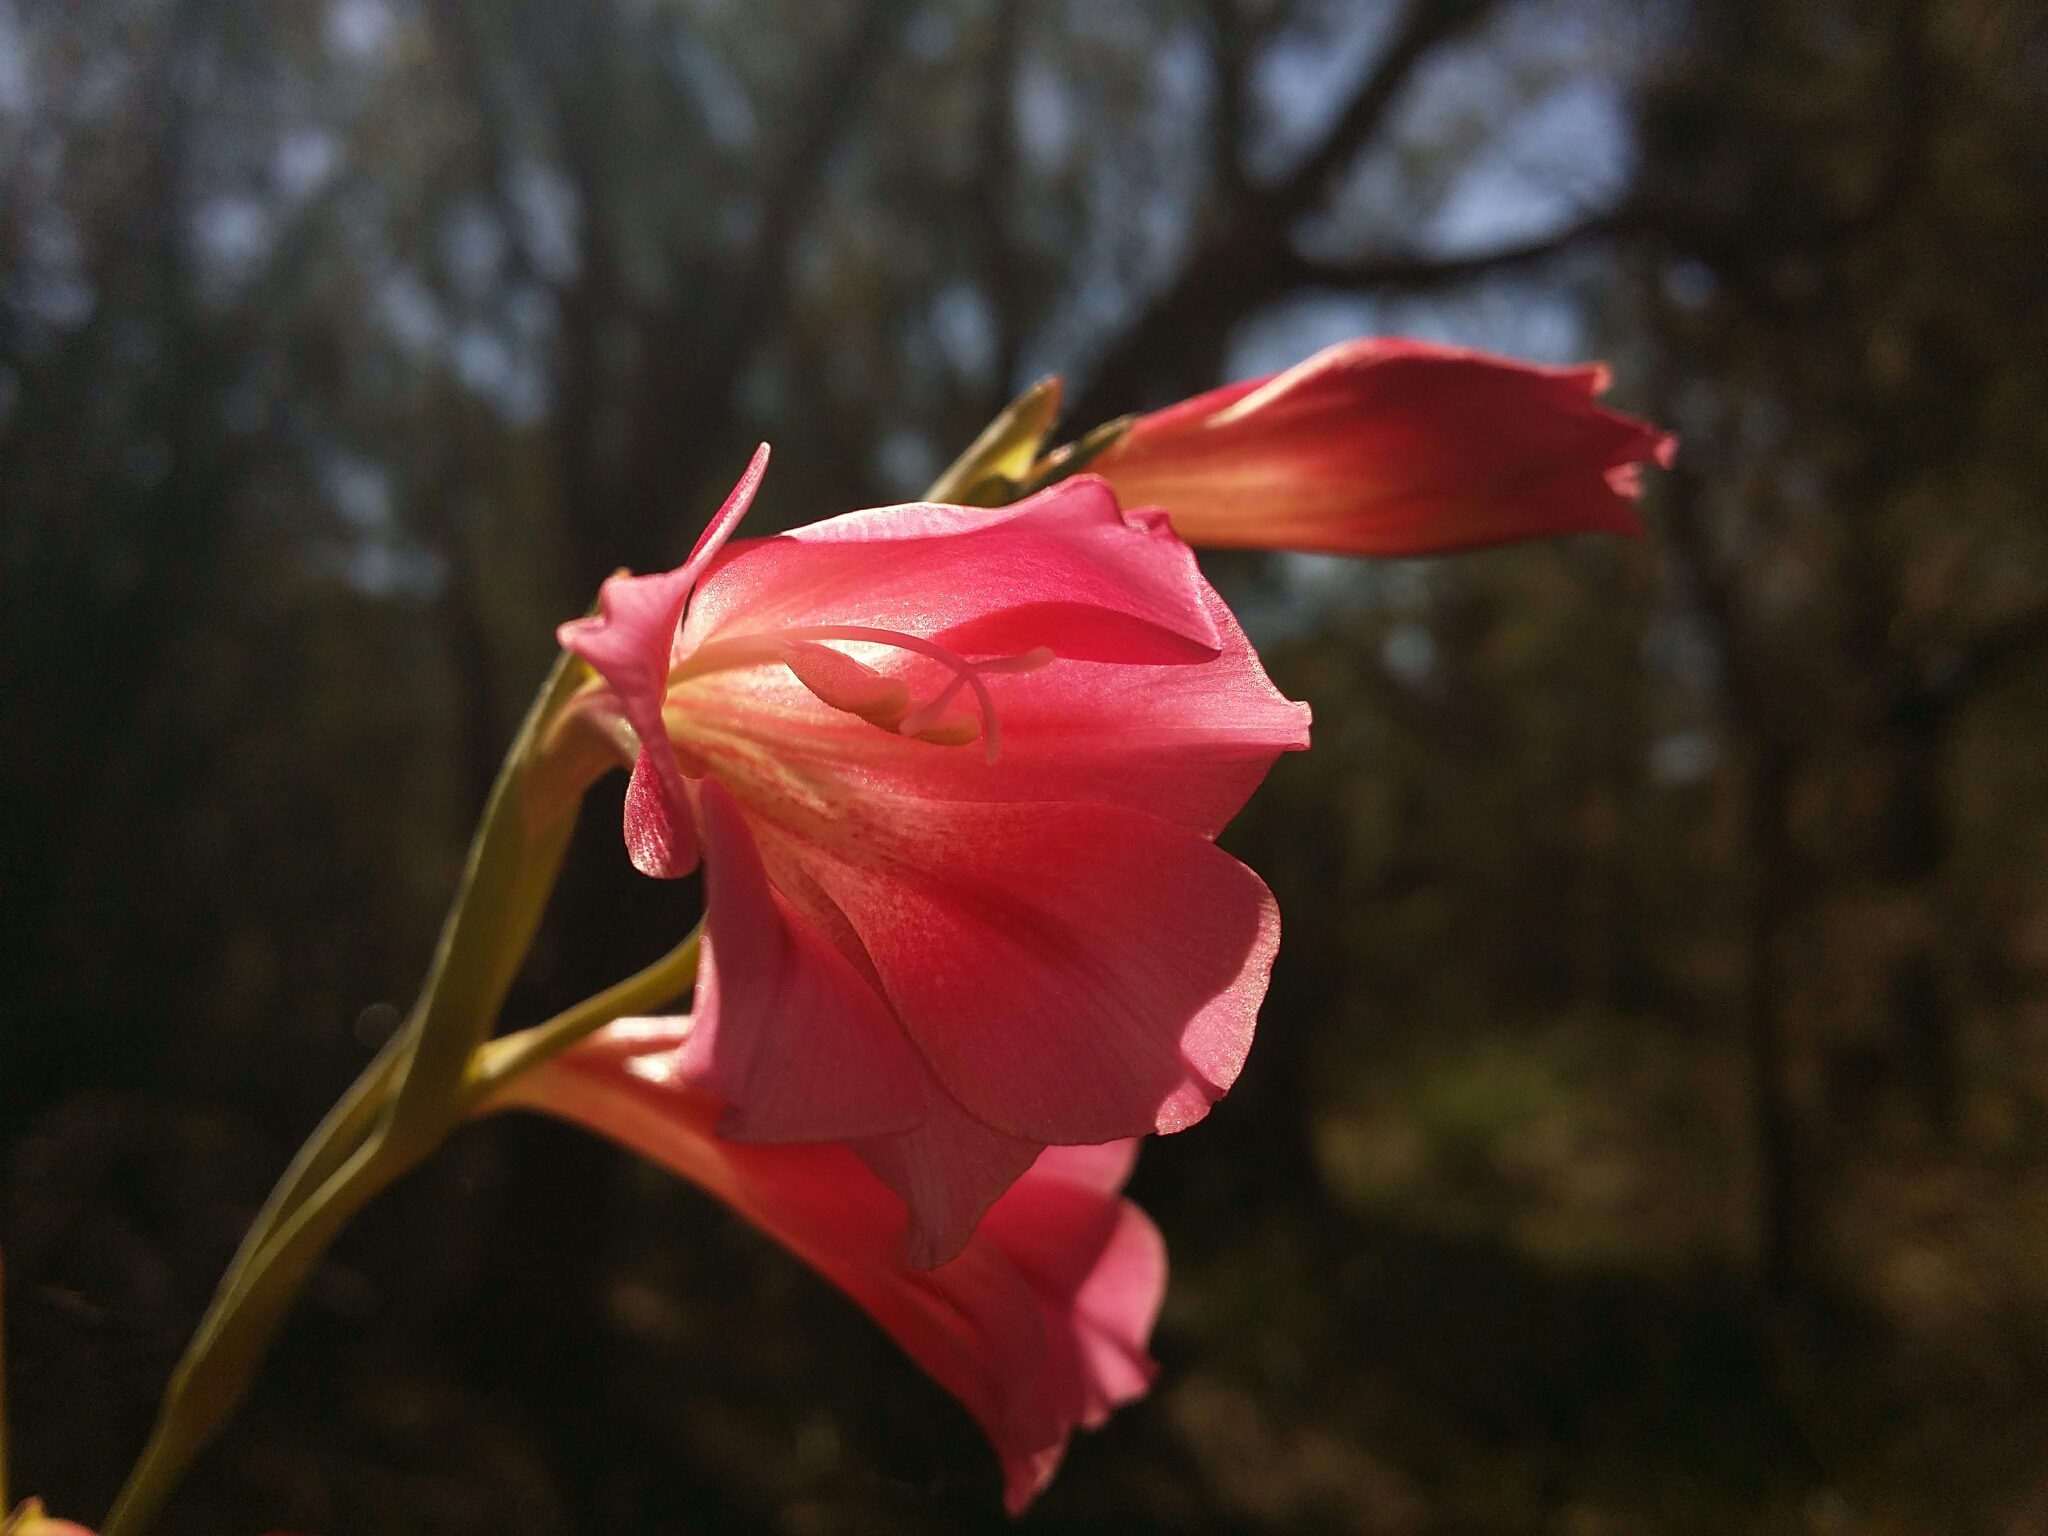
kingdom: Plantae
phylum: Tracheophyta
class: Liliopsida
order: Asparagales
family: Iridaceae
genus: Gladiolus
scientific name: Gladiolus caryophyllaceus
